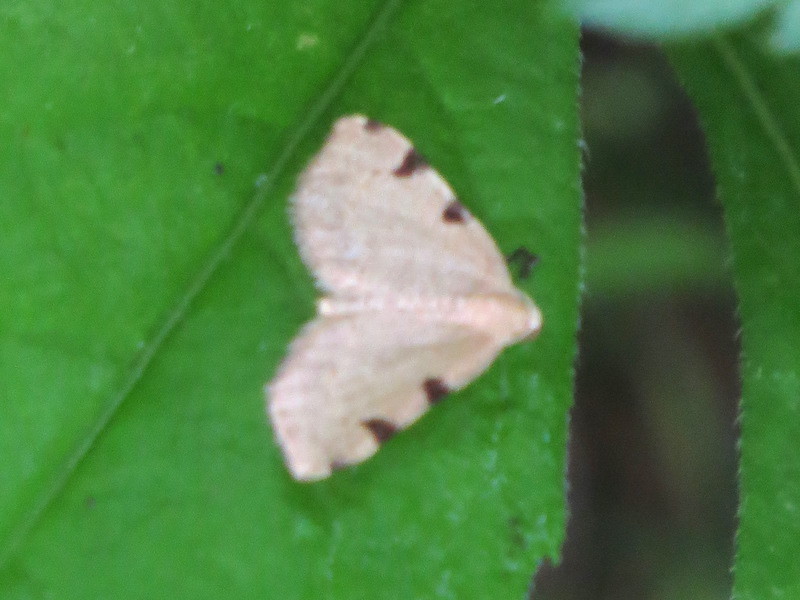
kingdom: Animalia
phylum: Arthropoda
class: Insecta
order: Lepidoptera
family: Geometridae
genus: Heterophleps
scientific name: Heterophleps triguttaria
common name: Three-spotted fillip
